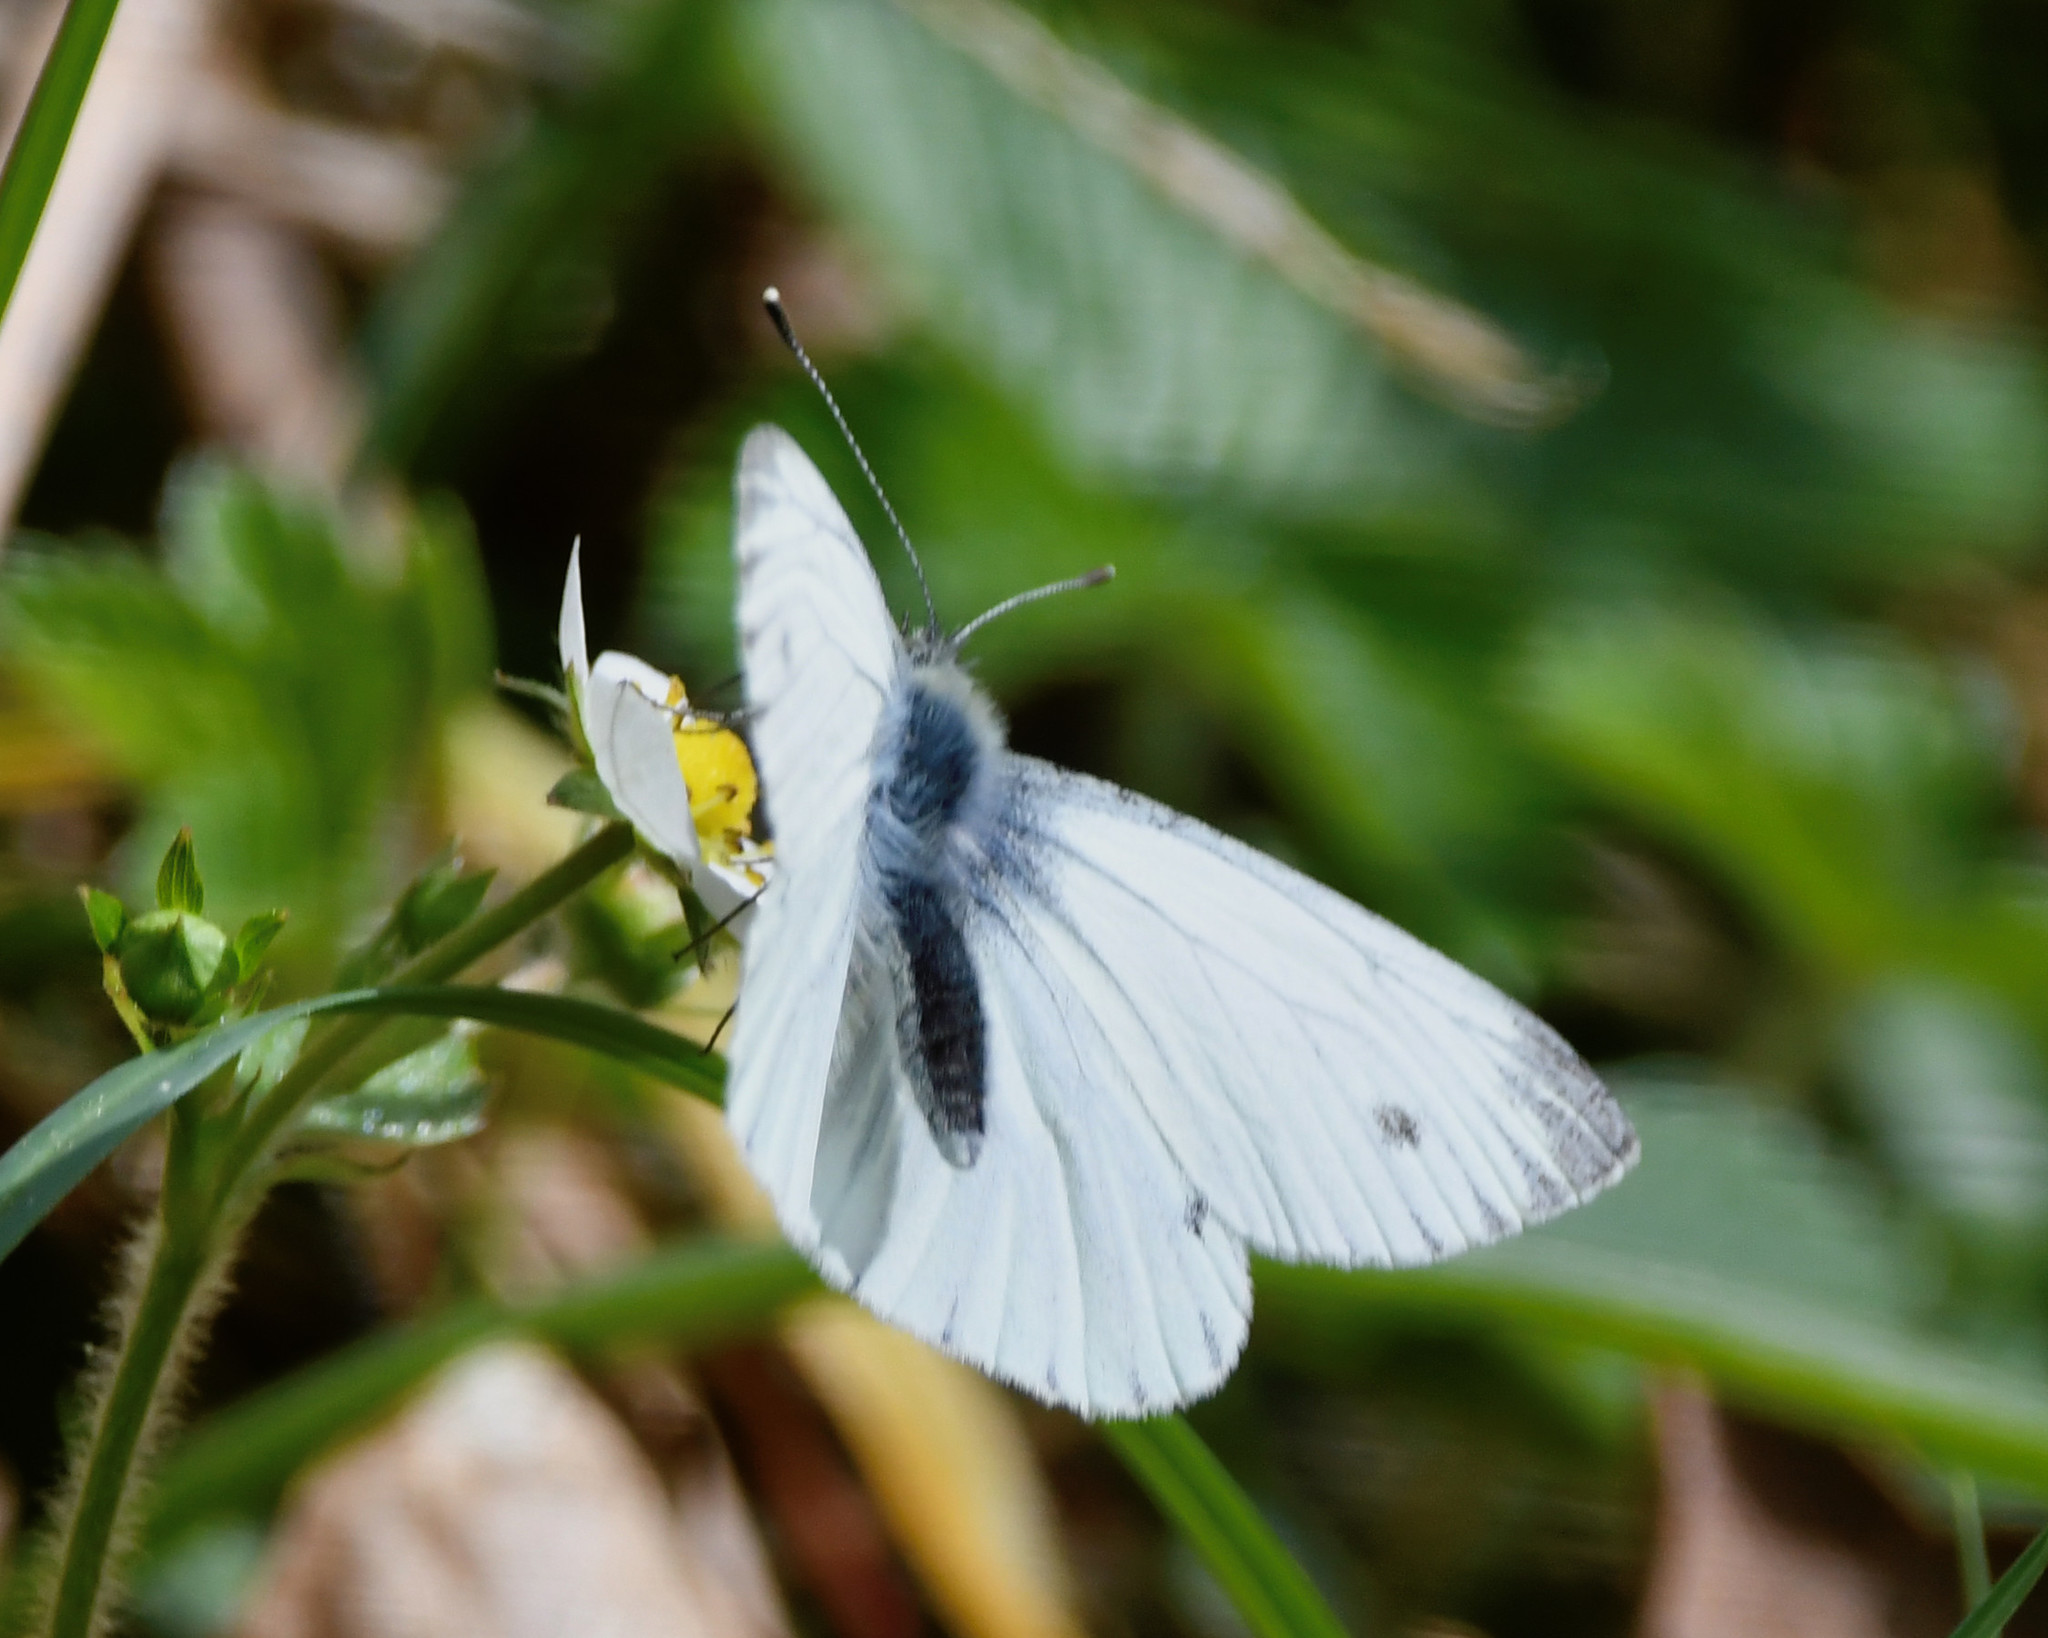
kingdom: Animalia
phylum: Arthropoda
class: Insecta
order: Lepidoptera
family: Pieridae
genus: Pieris
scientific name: Pieris napi
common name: Green-veined white
